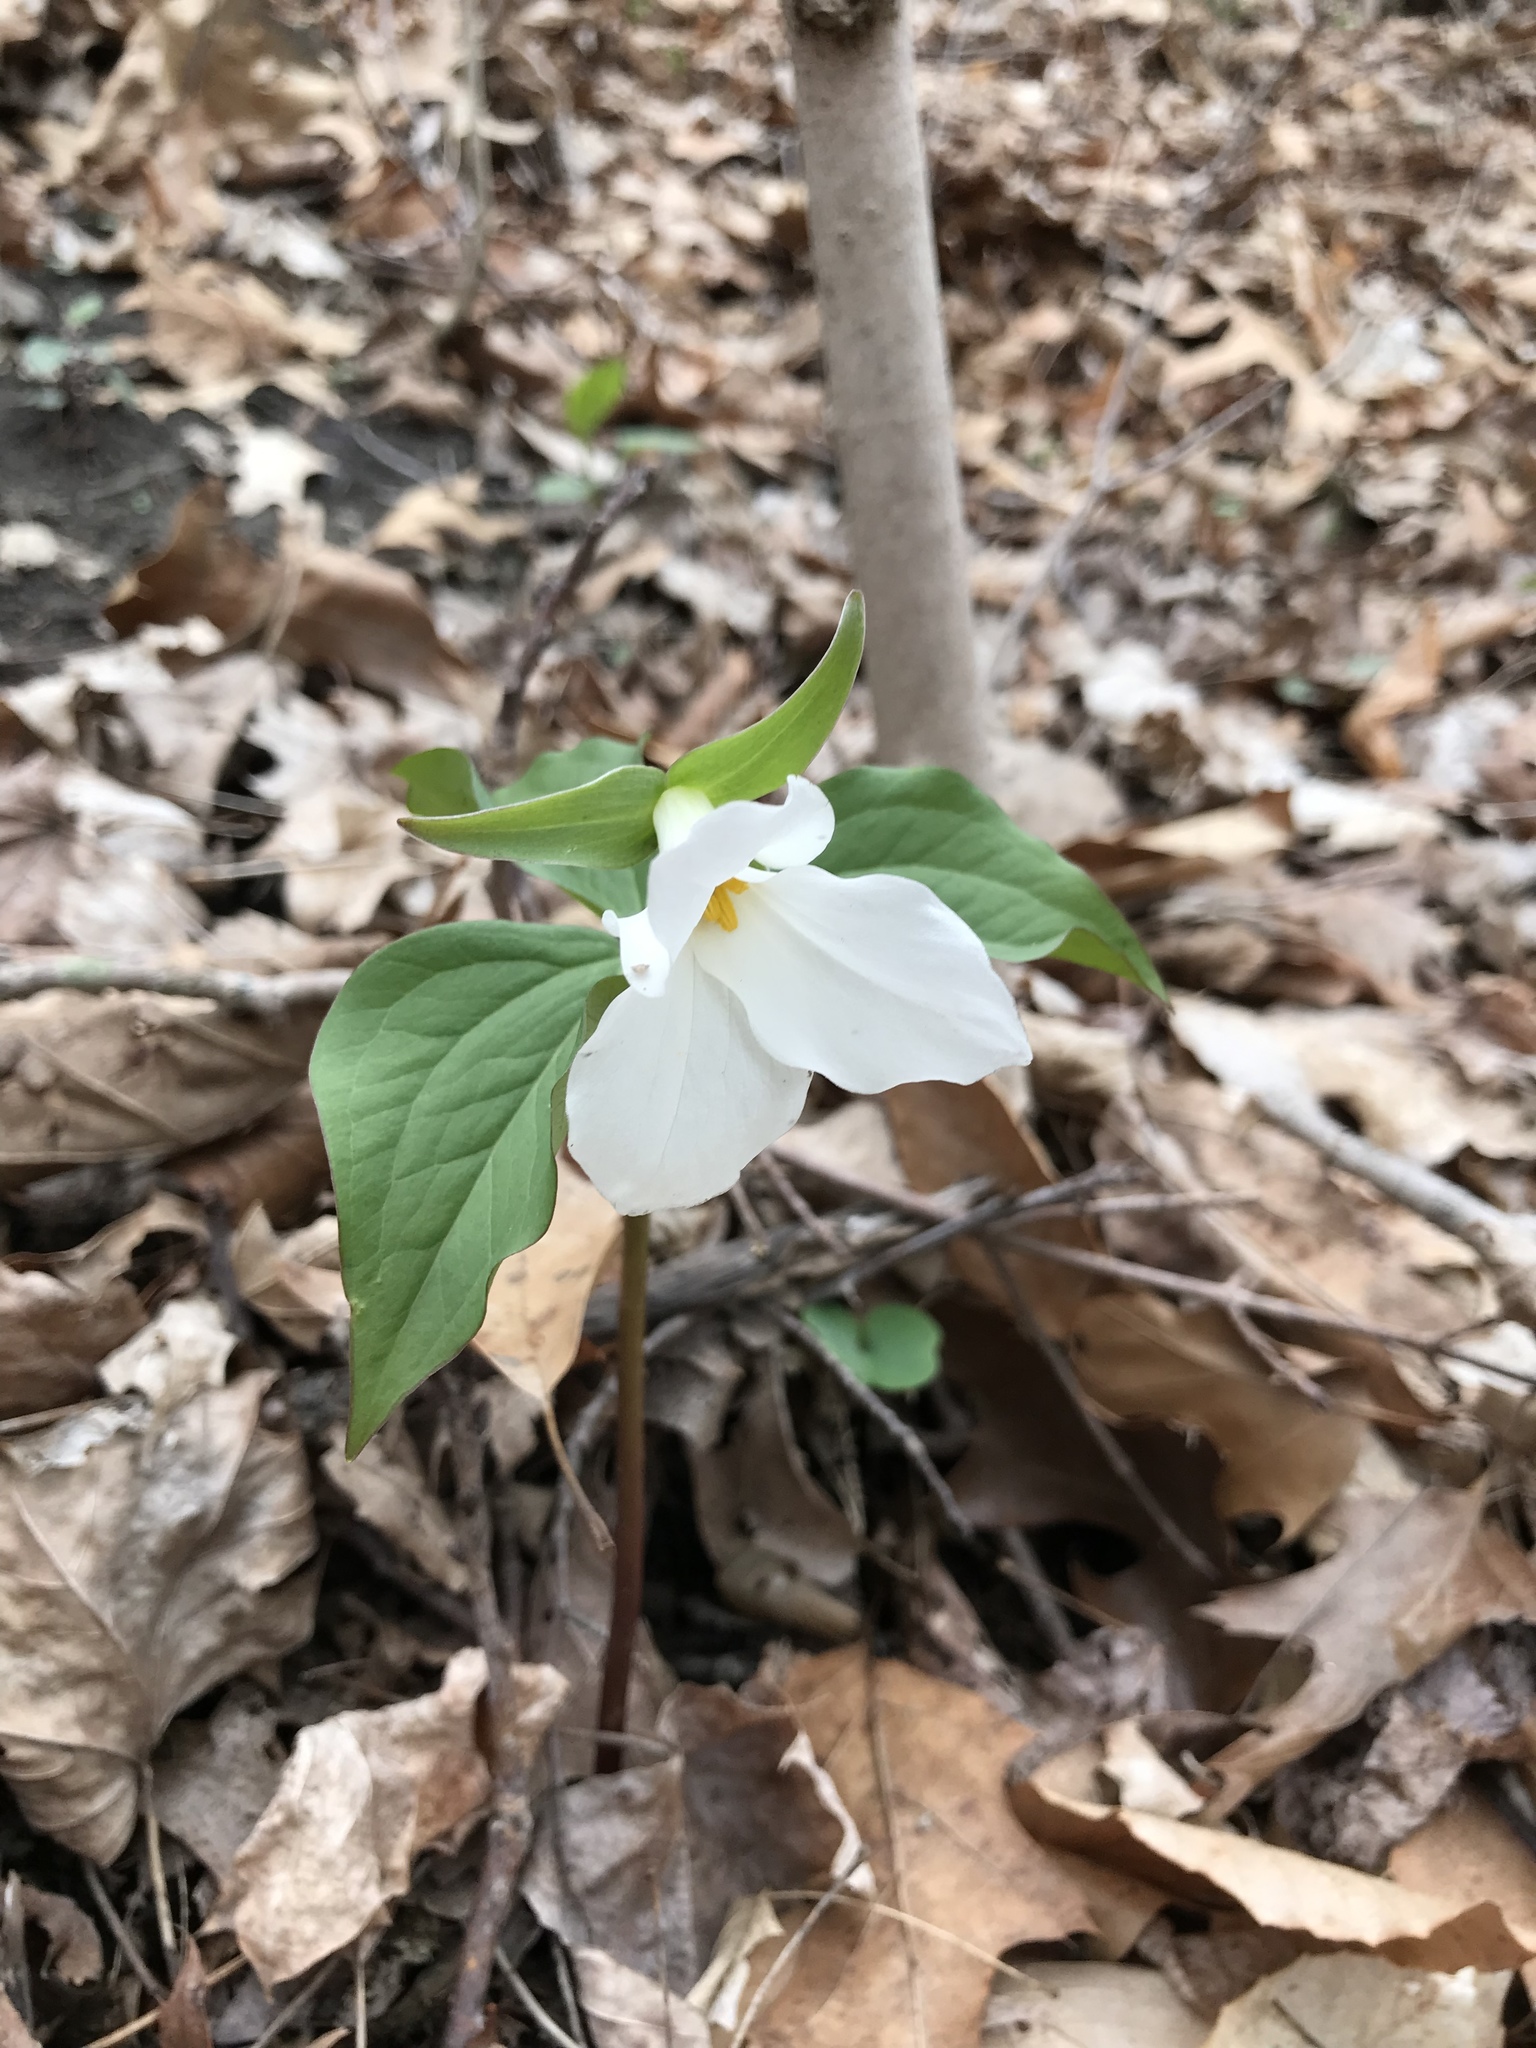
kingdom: Plantae
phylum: Tracheophyta
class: Liliopsida
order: Liliales
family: Melanthiaceae
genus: Trillium
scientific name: Trillium grandiflorum
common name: Great white trillium
